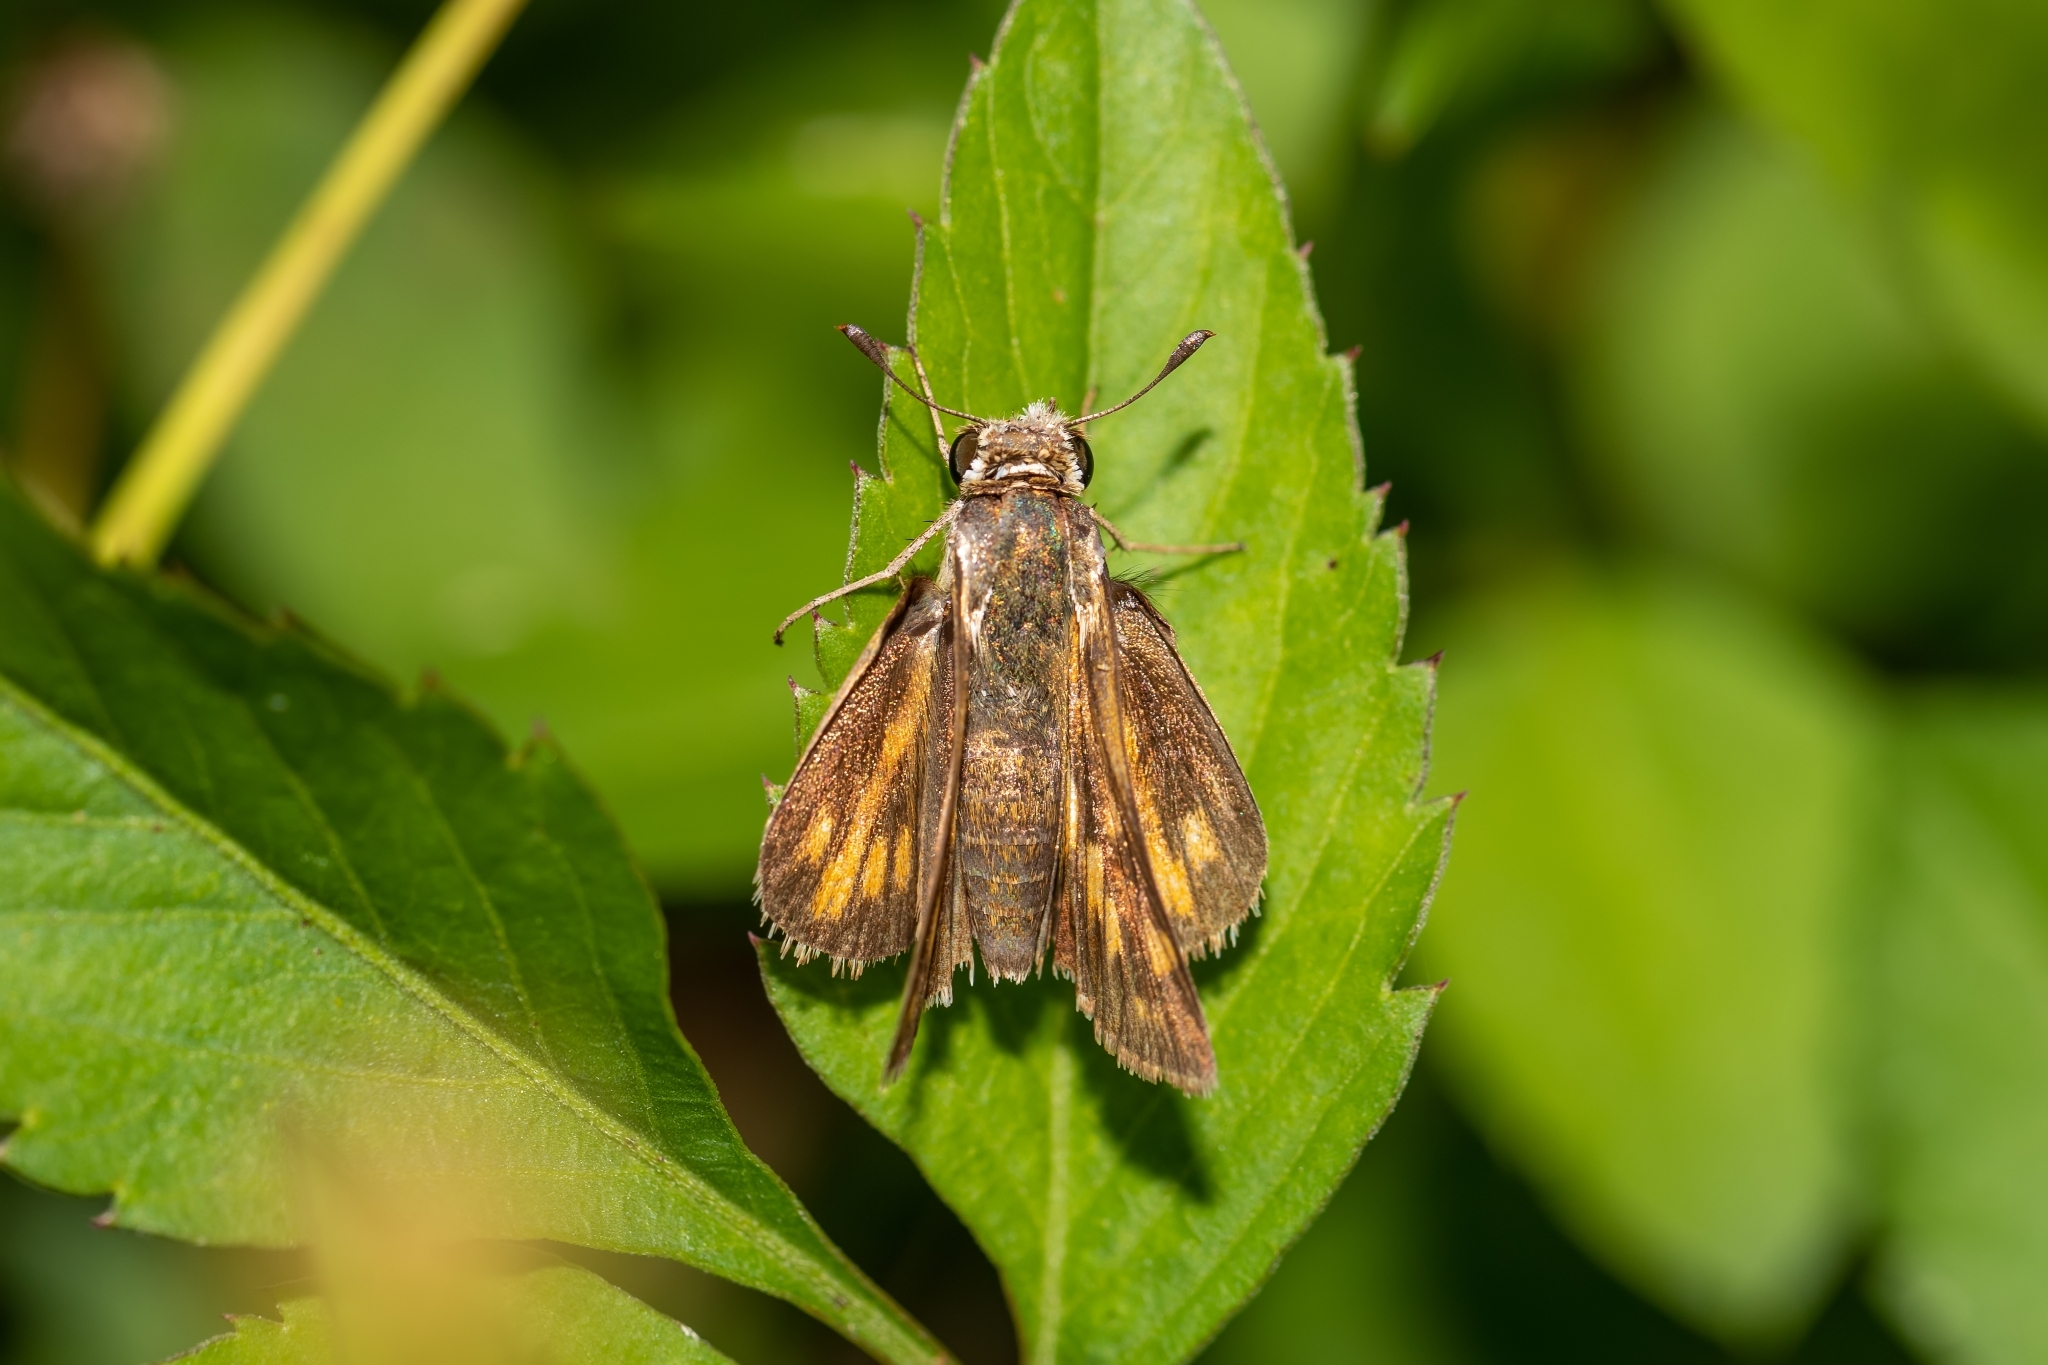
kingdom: Animalia
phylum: Arthropoda
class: Insecta
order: Lepidoptera
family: Hesperiidae
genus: Hylephila
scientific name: Hylephila phyleus
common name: Fiery skipper
